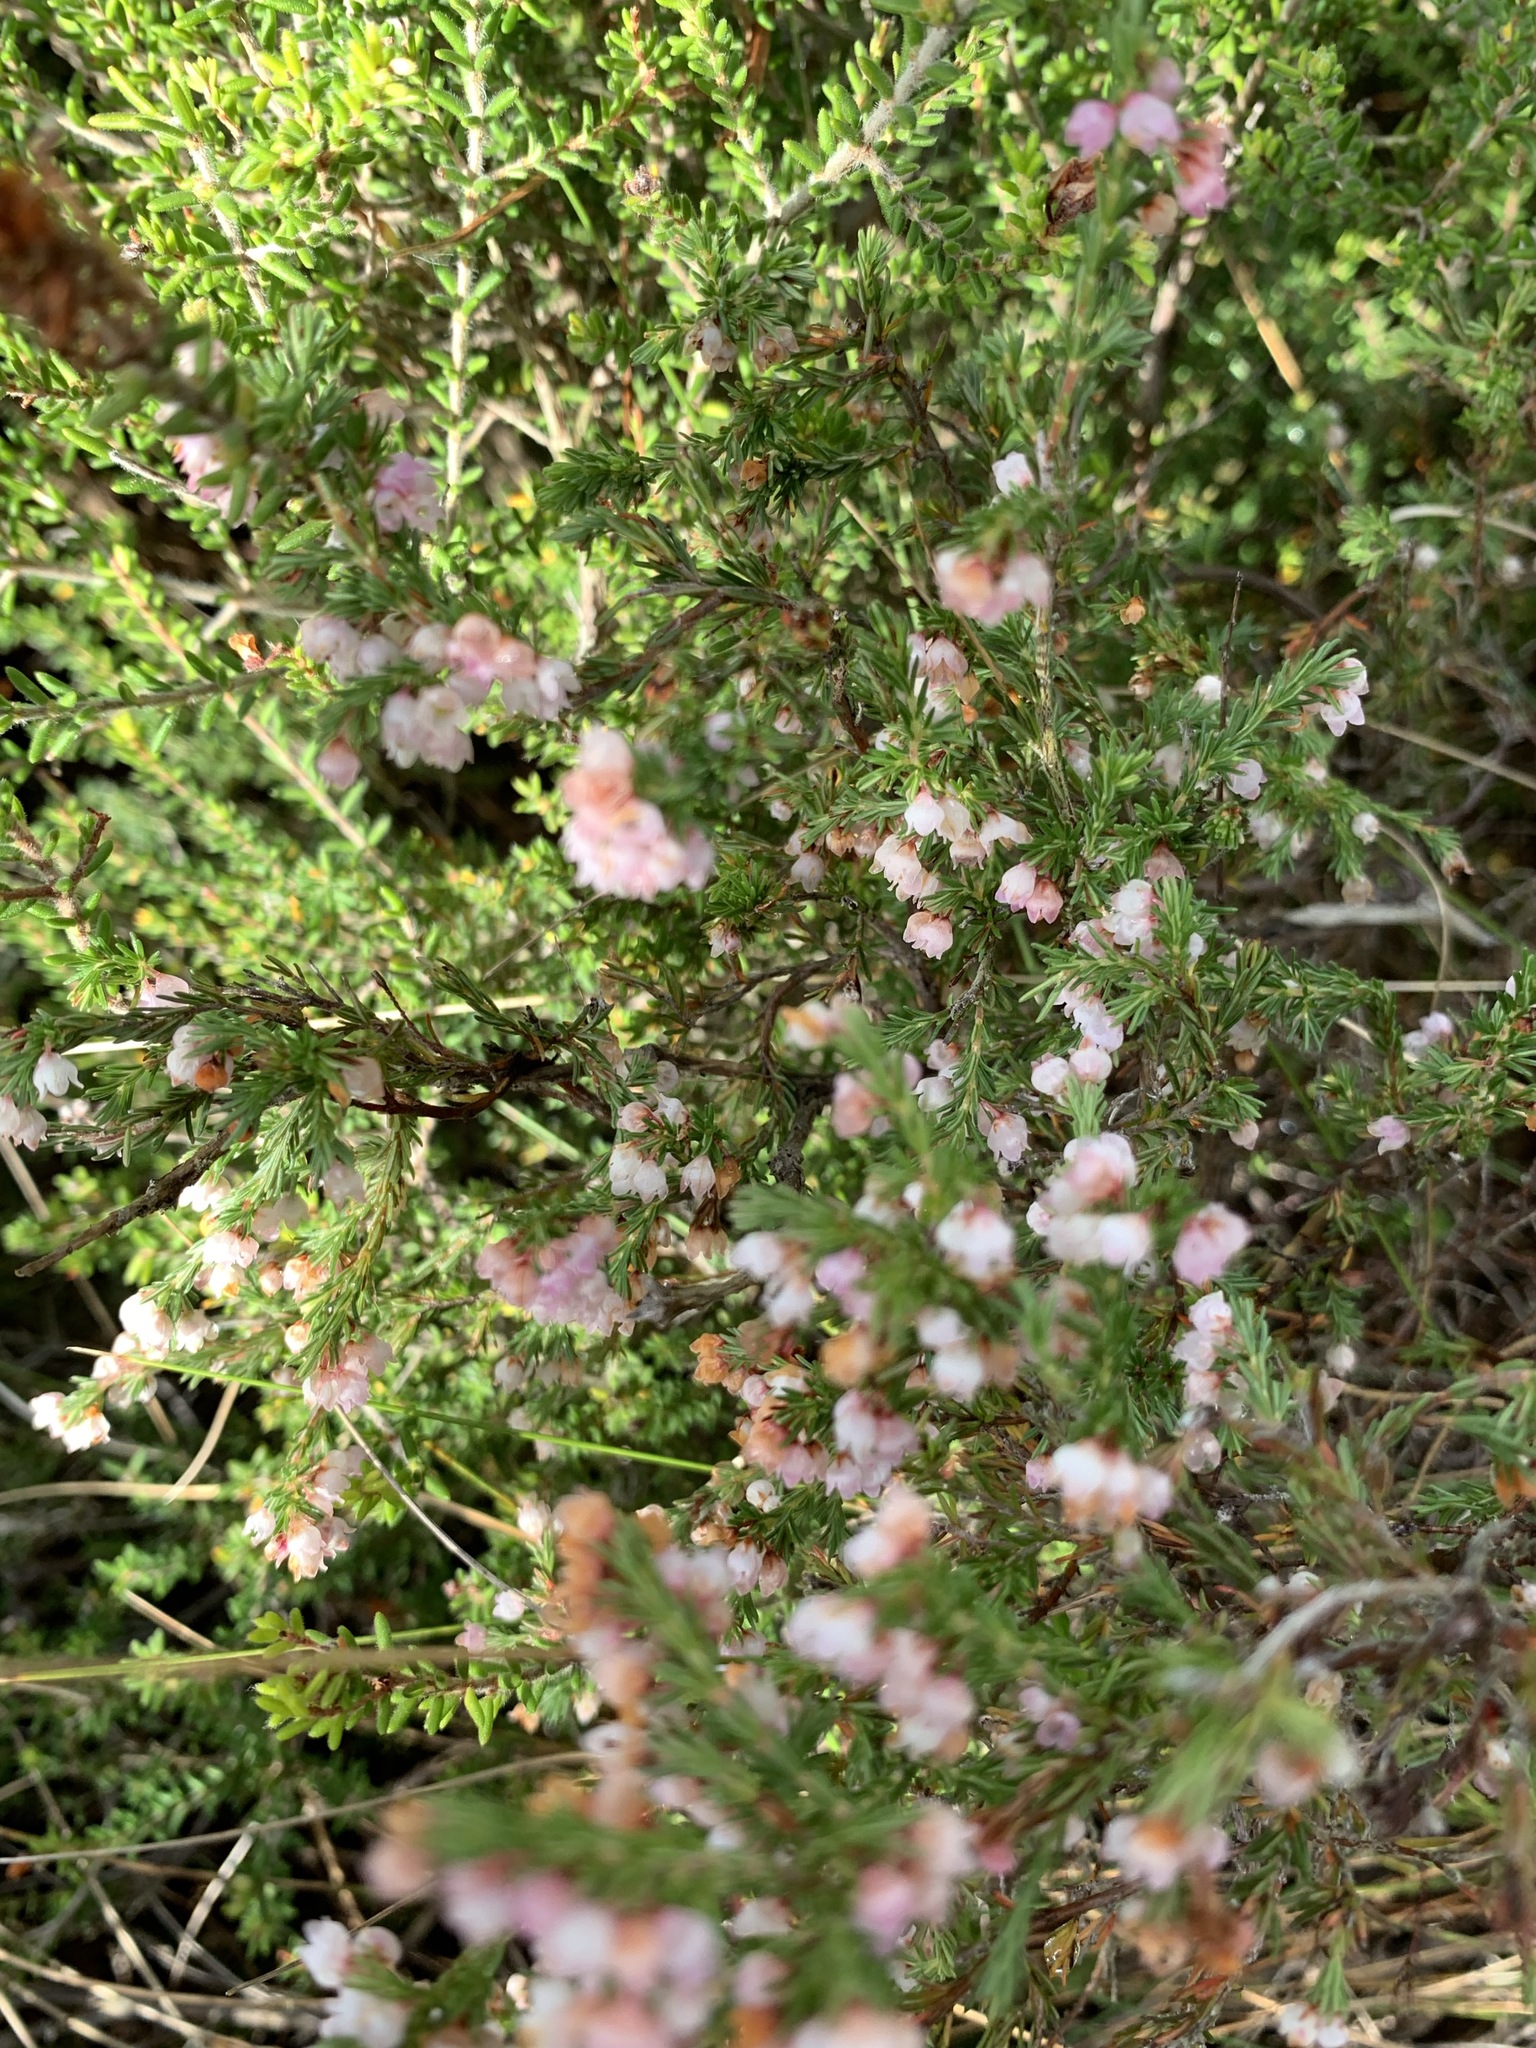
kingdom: Plantae
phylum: Tracheophyta
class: Magnoliopsida
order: Ericales
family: Ericaceae
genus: Erica
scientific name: Erica mauritanica
